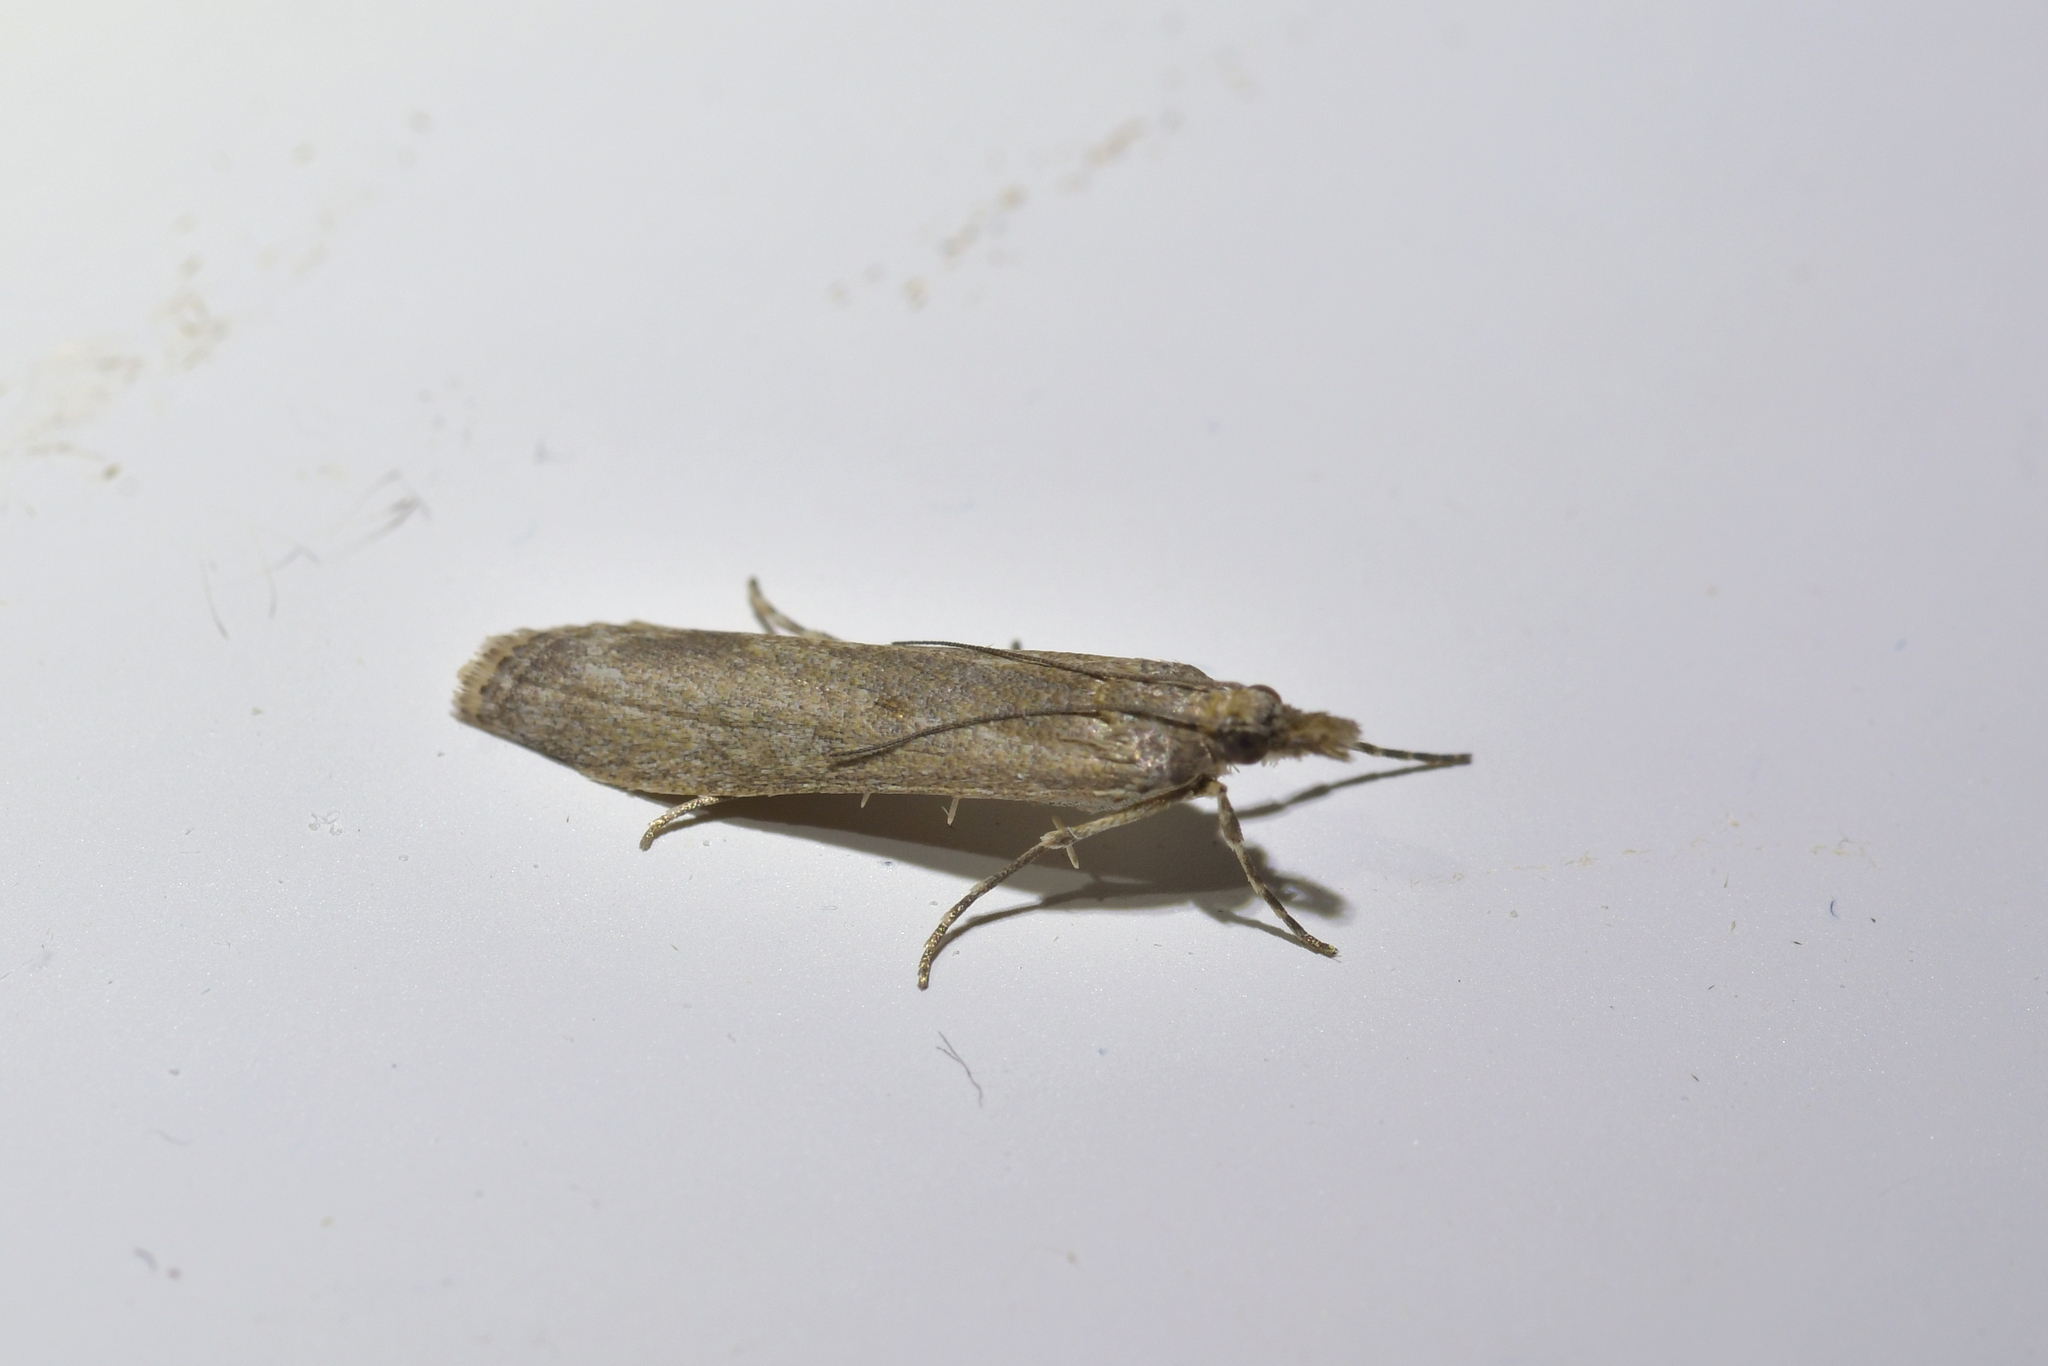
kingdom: Animalia
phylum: Arthropoda
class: Insecta
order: Lepidoptera
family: Crambidae
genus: Eudonia
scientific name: Eudonia leptalea
